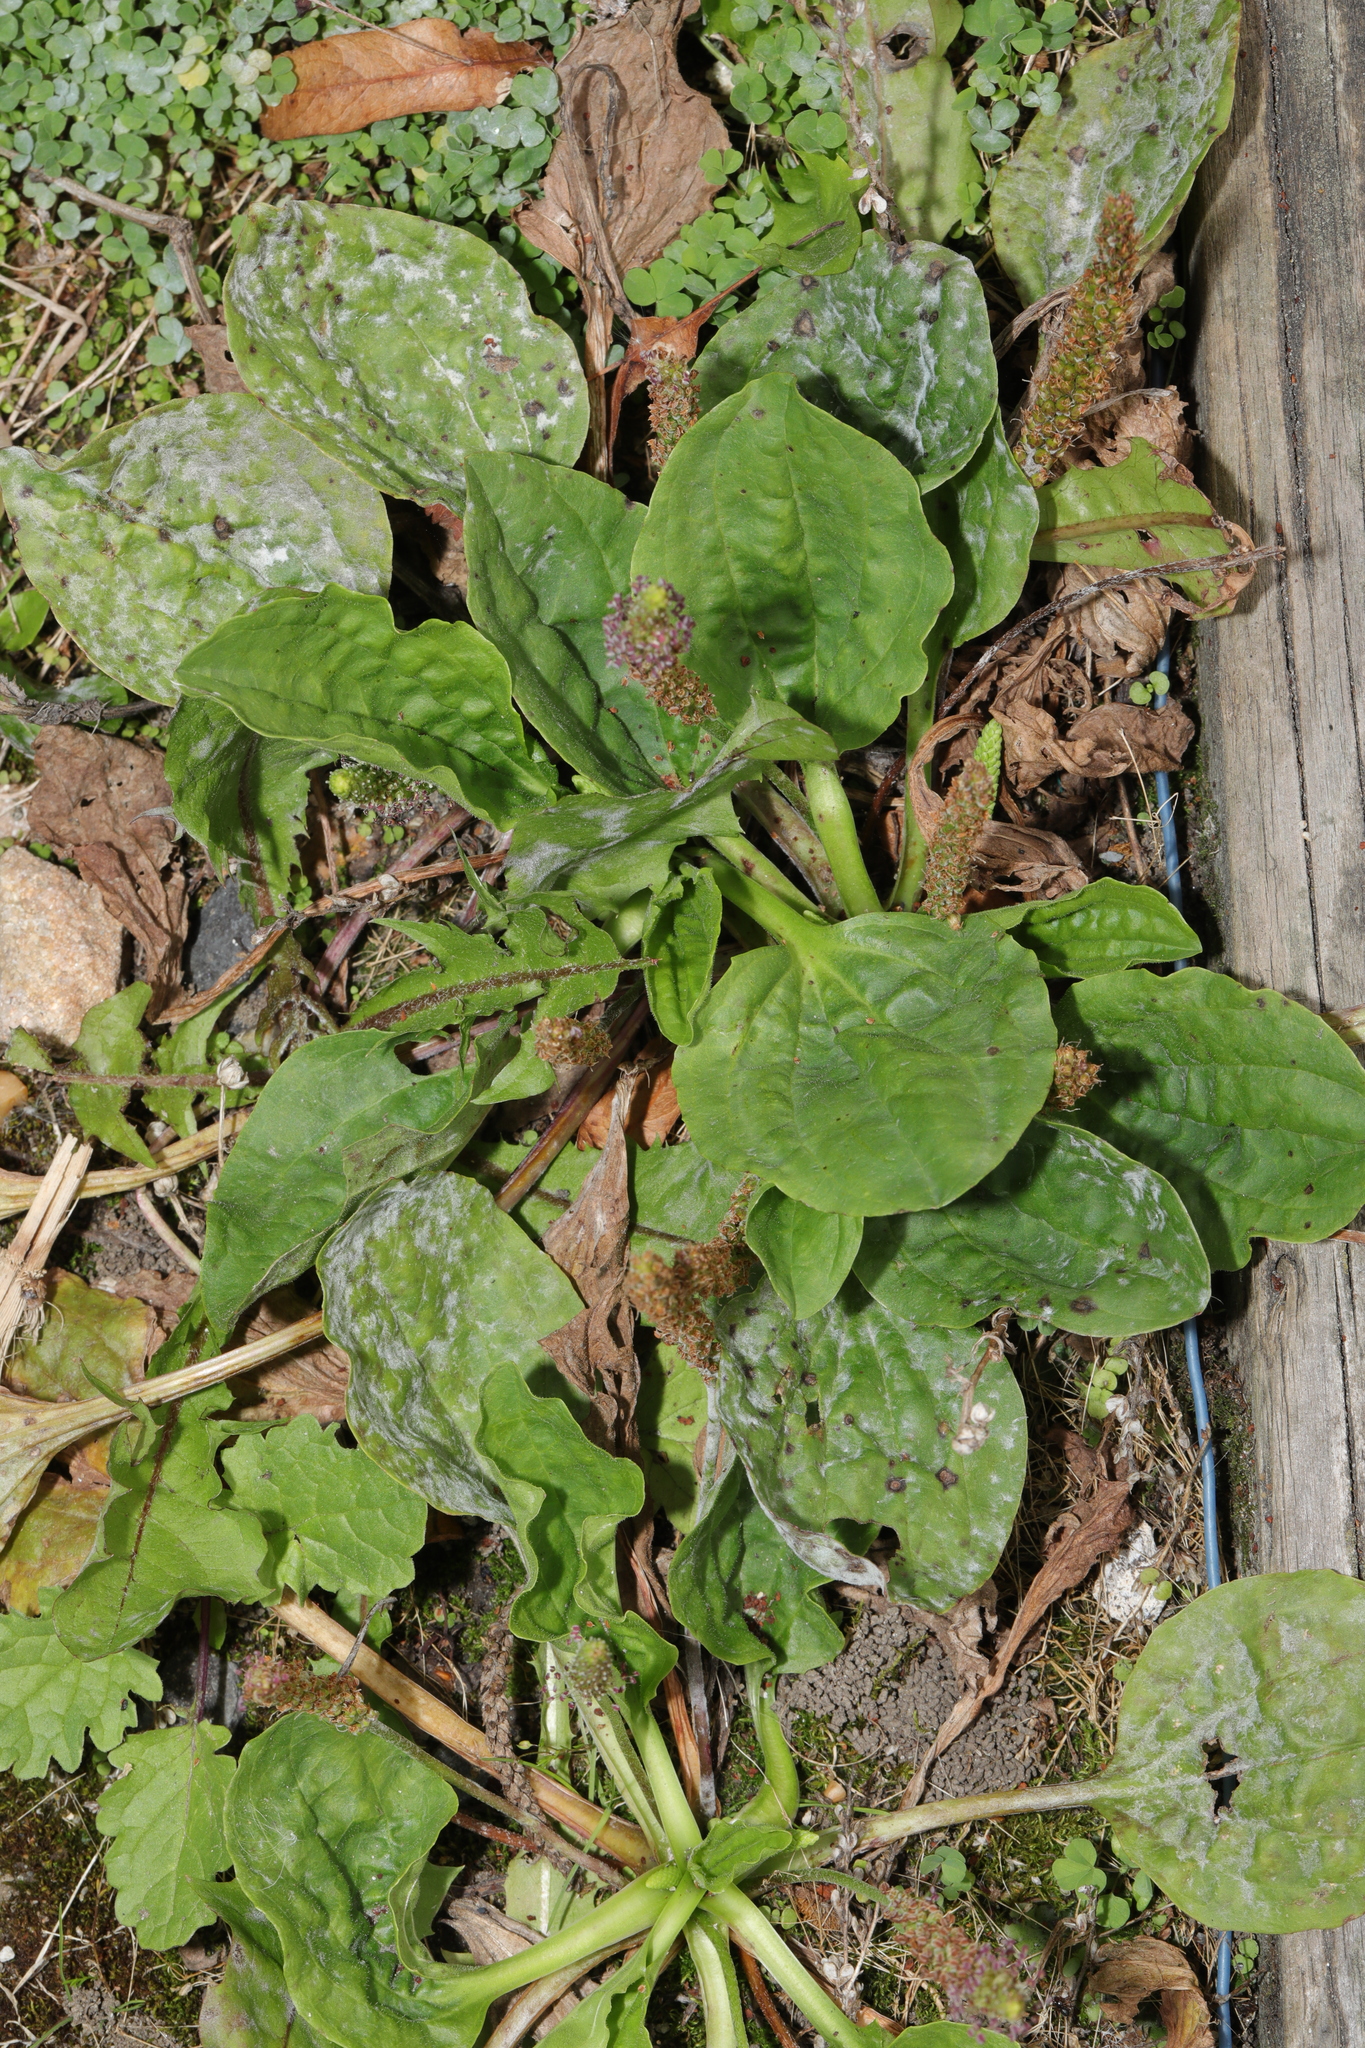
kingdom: Plantae
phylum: Tracheophyta
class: Magnoliopsida
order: Lamiales
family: Plantaginaceae
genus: Plantago
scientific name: Plantago major
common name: Common plantain
